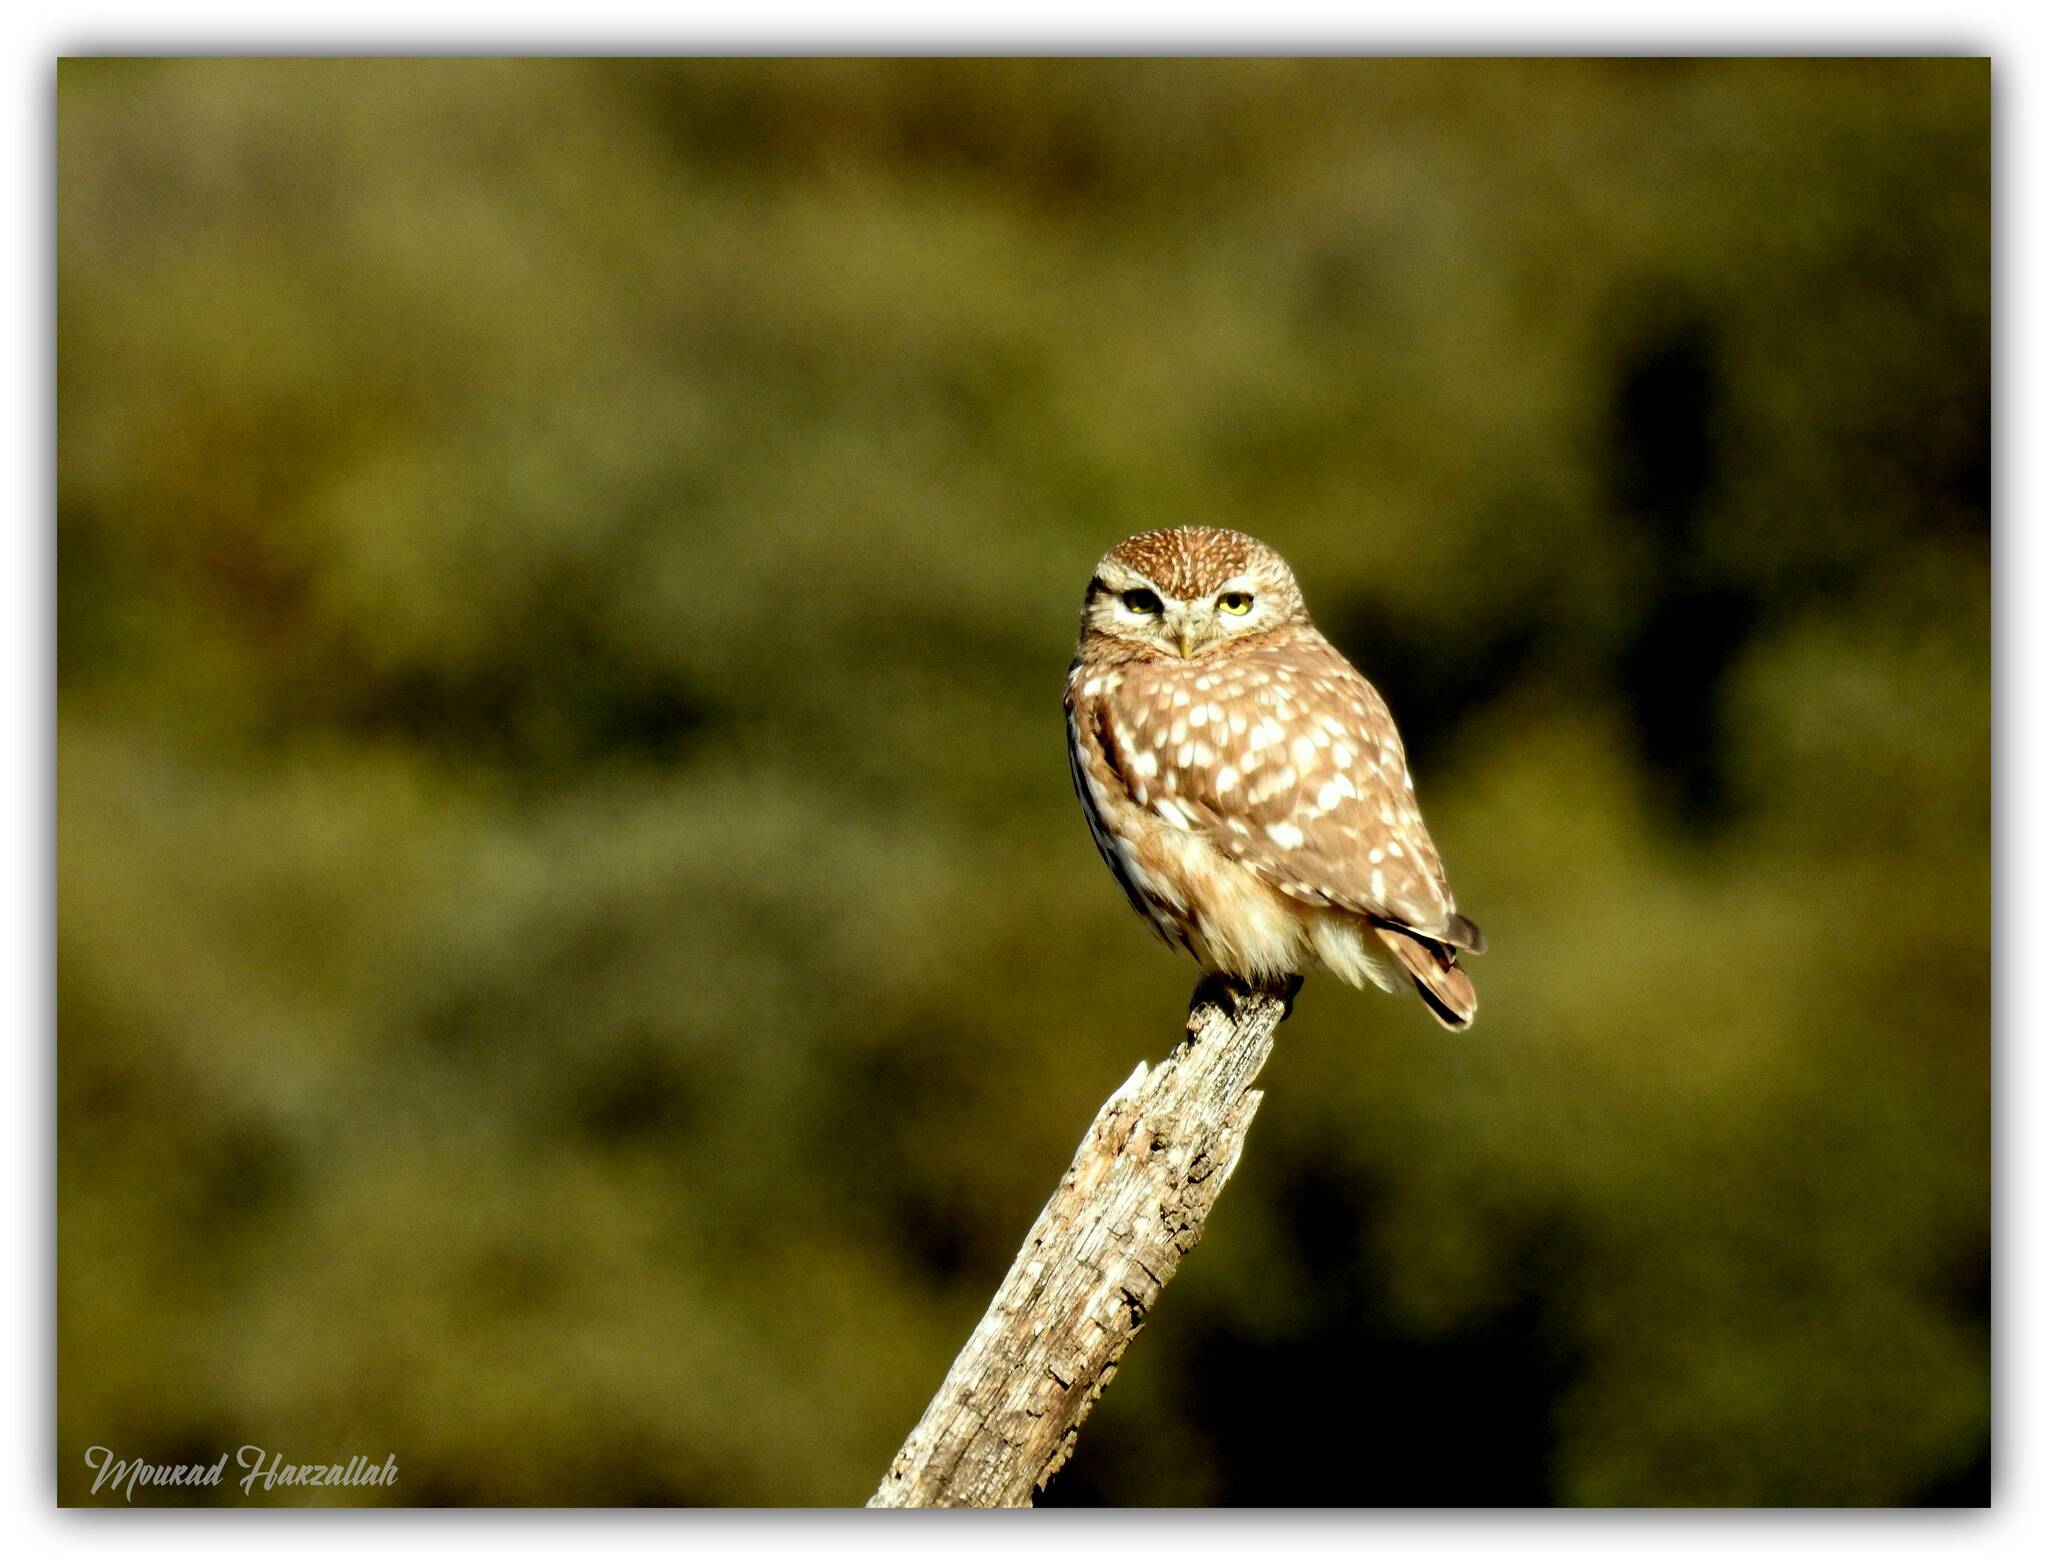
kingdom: Animalia
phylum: Chordata
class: Aves
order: Strigiformes
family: Strigidae
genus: Athene
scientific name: Athene noctua
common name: Little owl
